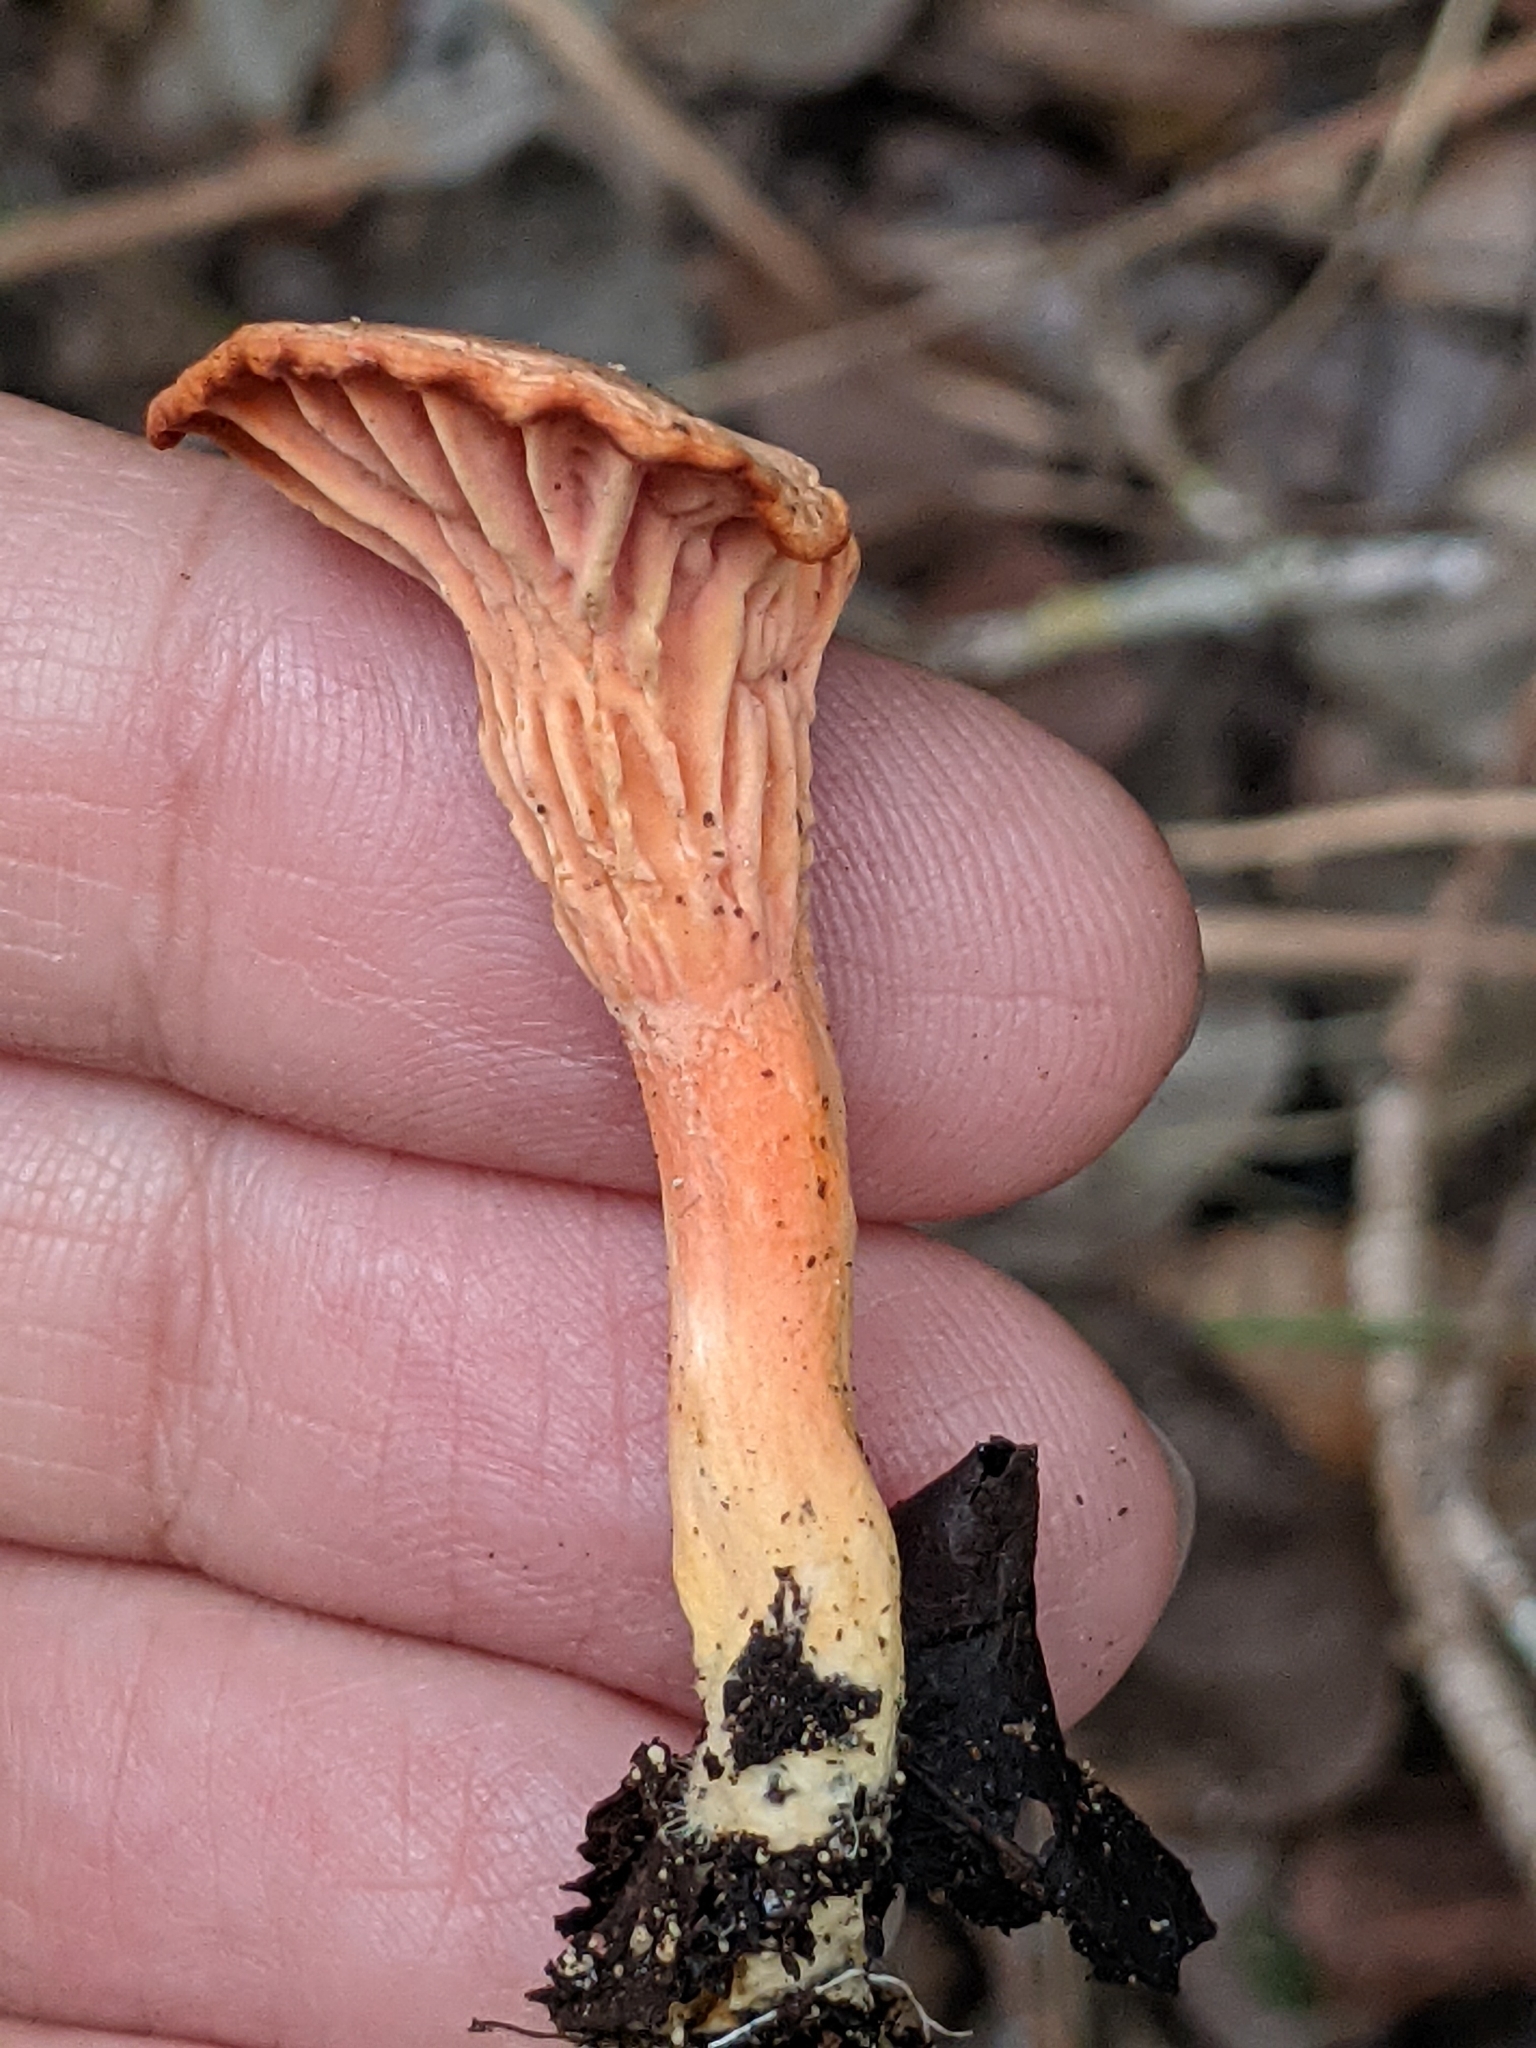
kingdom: Fungi
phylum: Basidiomycota
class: Agaricomycetes
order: Cantharellales
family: Hydnaceae
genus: Cantharellus
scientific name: Cantharellus coccolobae
